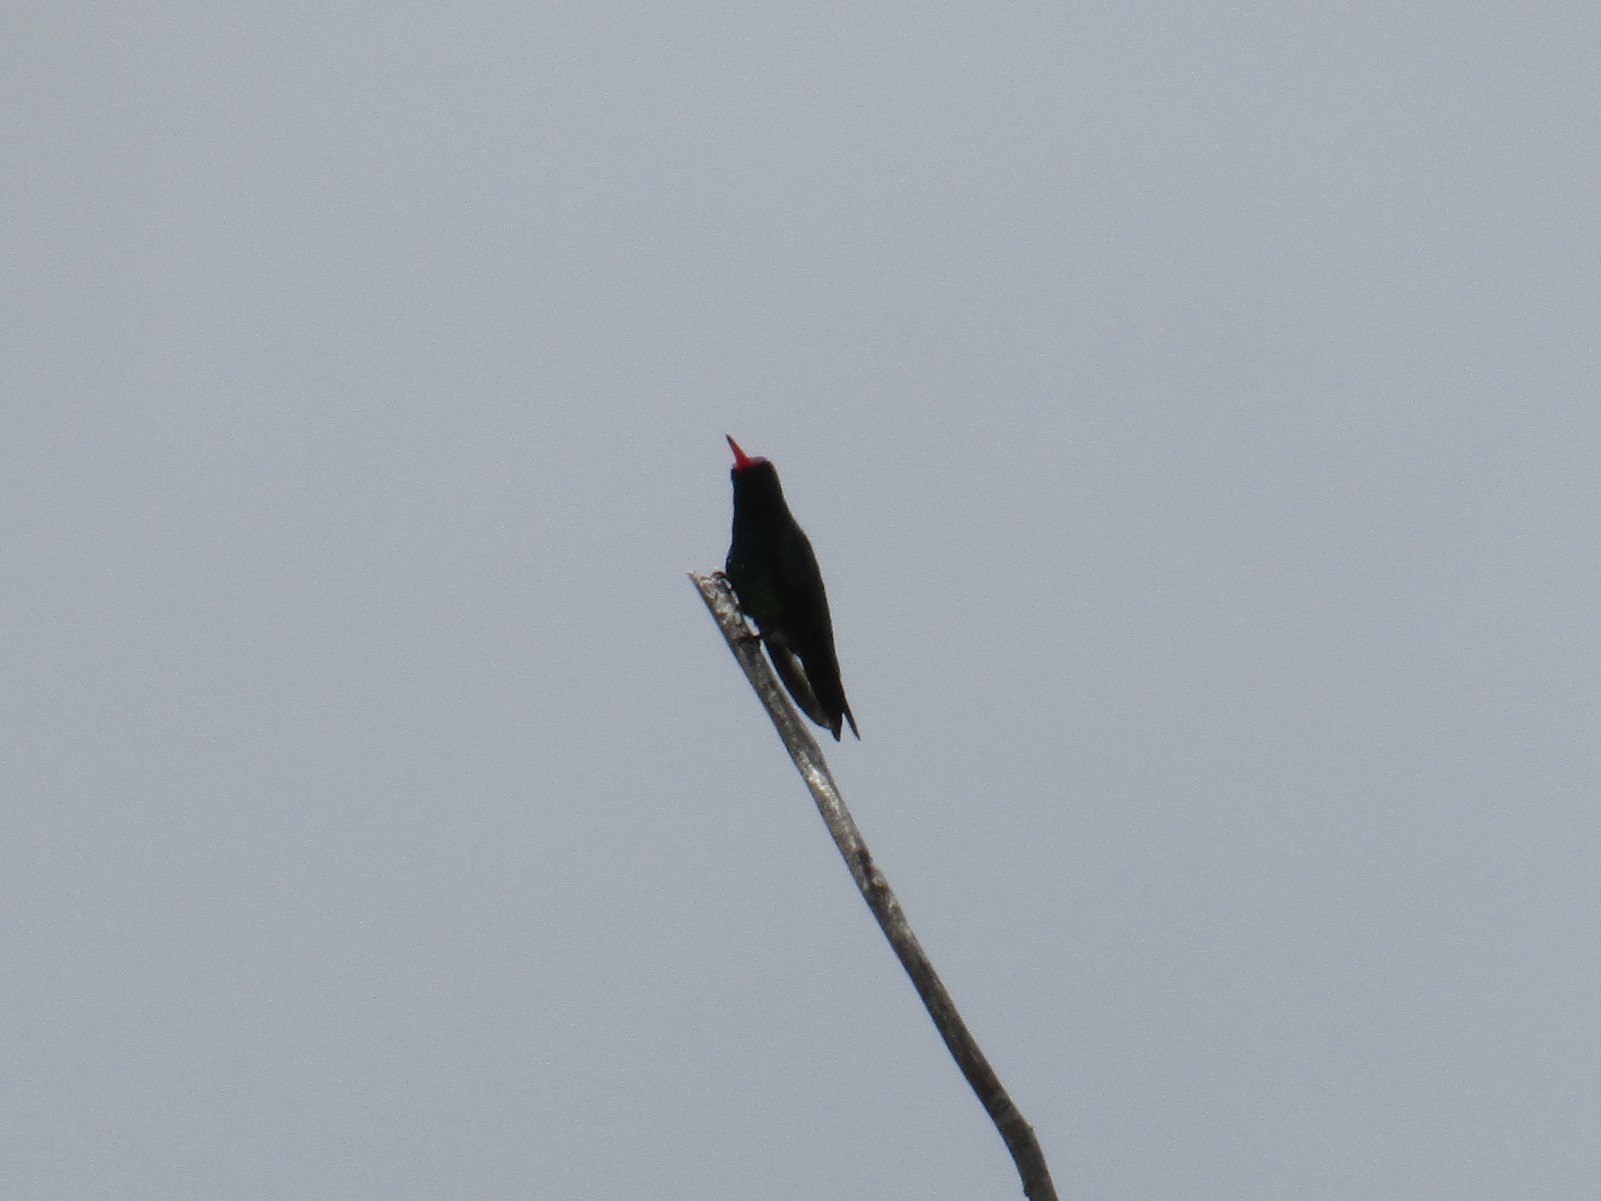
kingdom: Animalia
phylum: Chordata
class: Aves
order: Apodiformes
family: Trochilidae
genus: Chlorostilbon
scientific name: Chlorostilbon lucidus
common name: Glittering-bellied emerald
